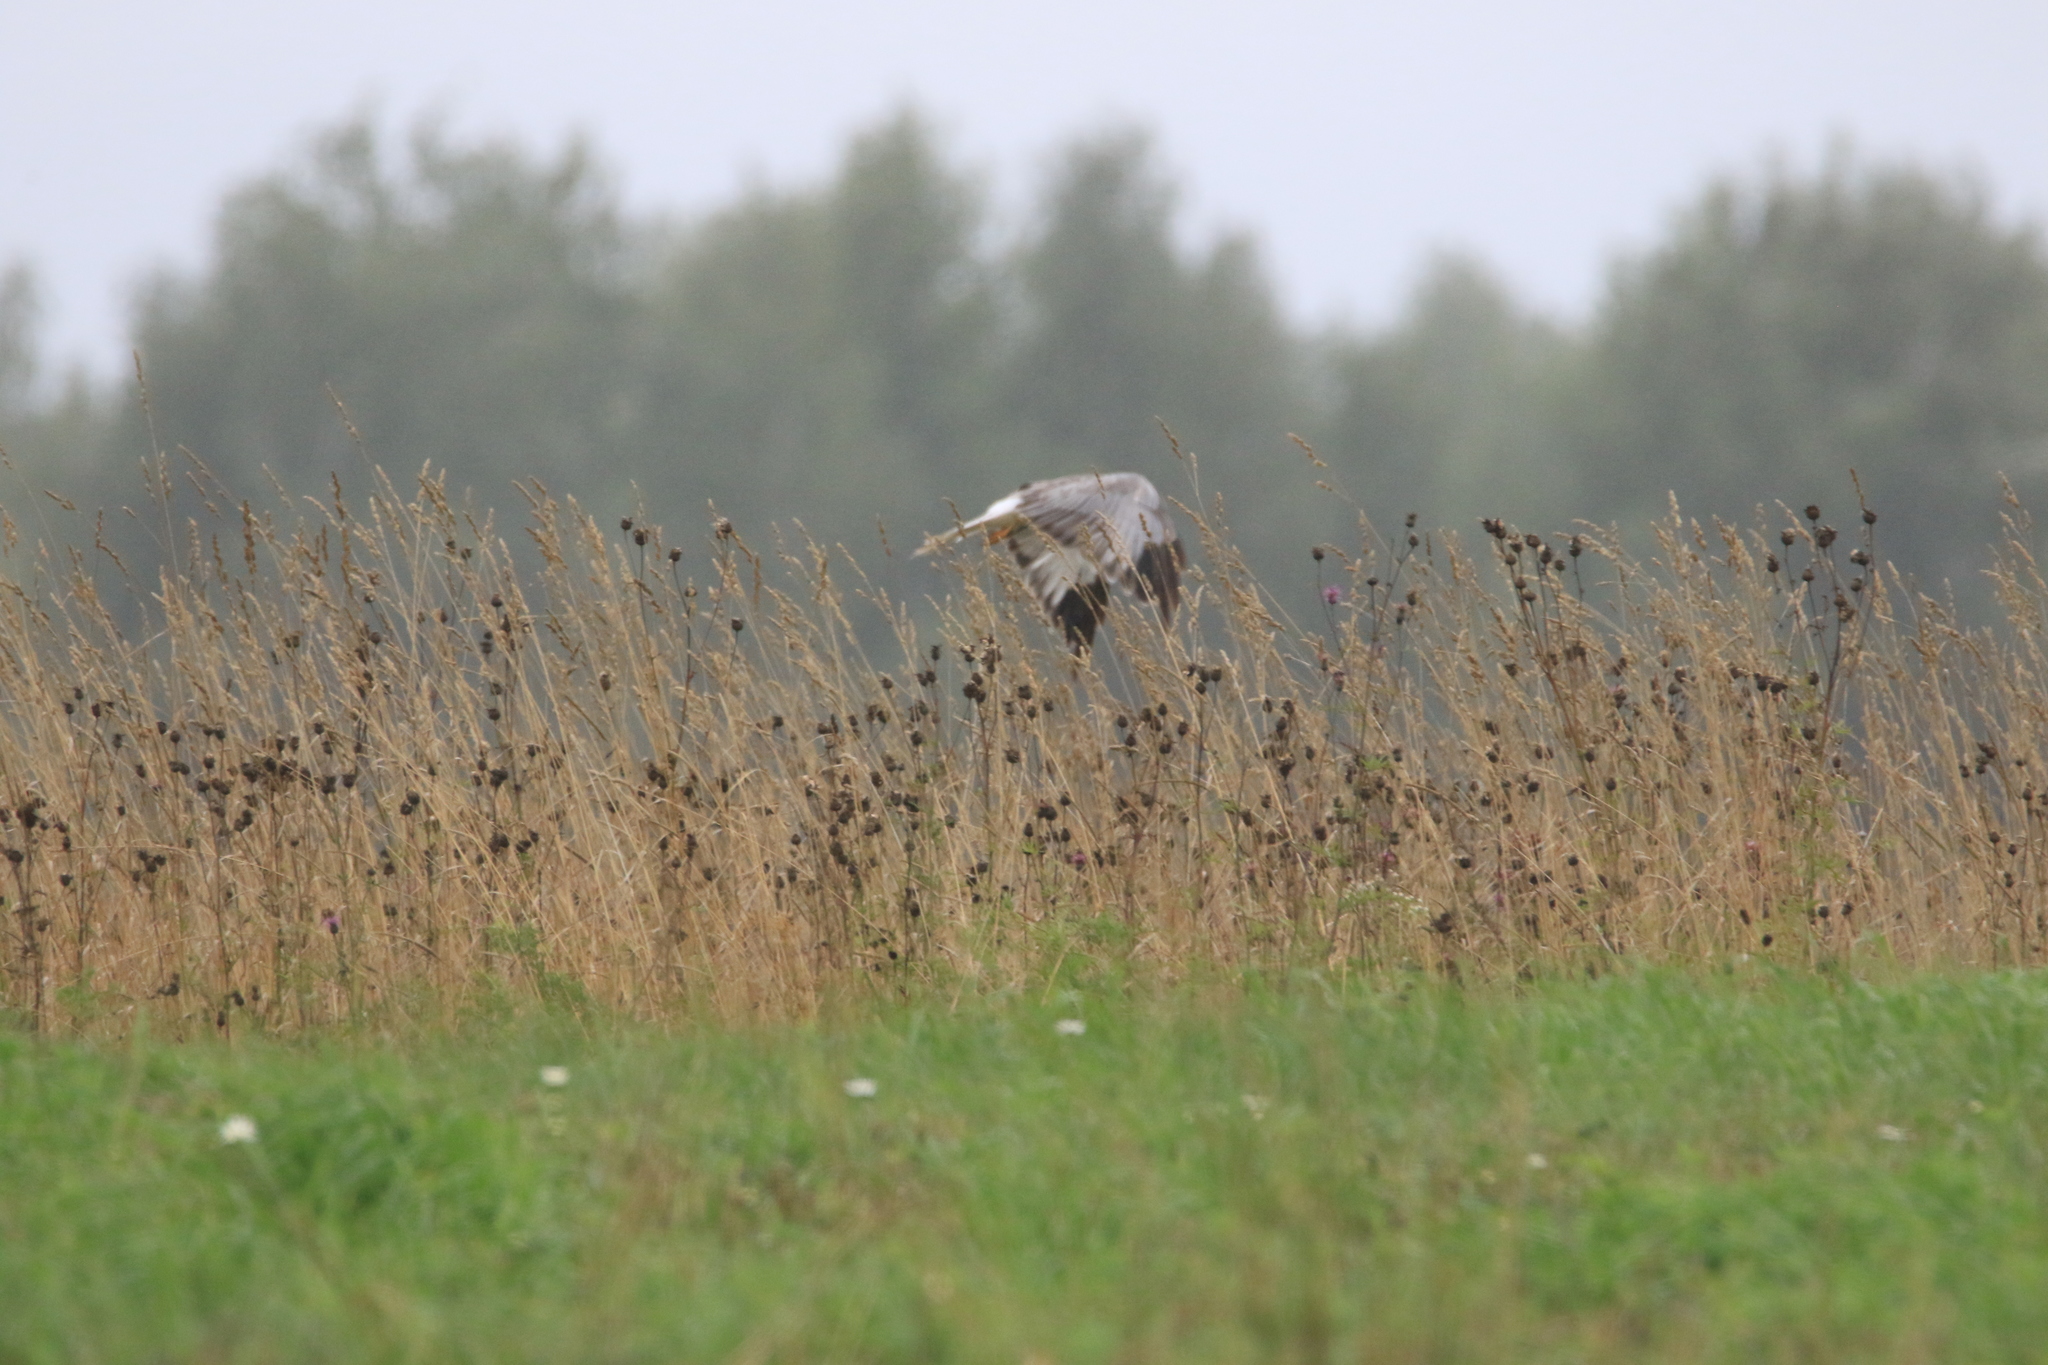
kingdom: Animalia
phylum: Chordata
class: Aves
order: Accipitriformes
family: Accipitridae
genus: Circus
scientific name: Circus cyaneus
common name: Hen harrier
